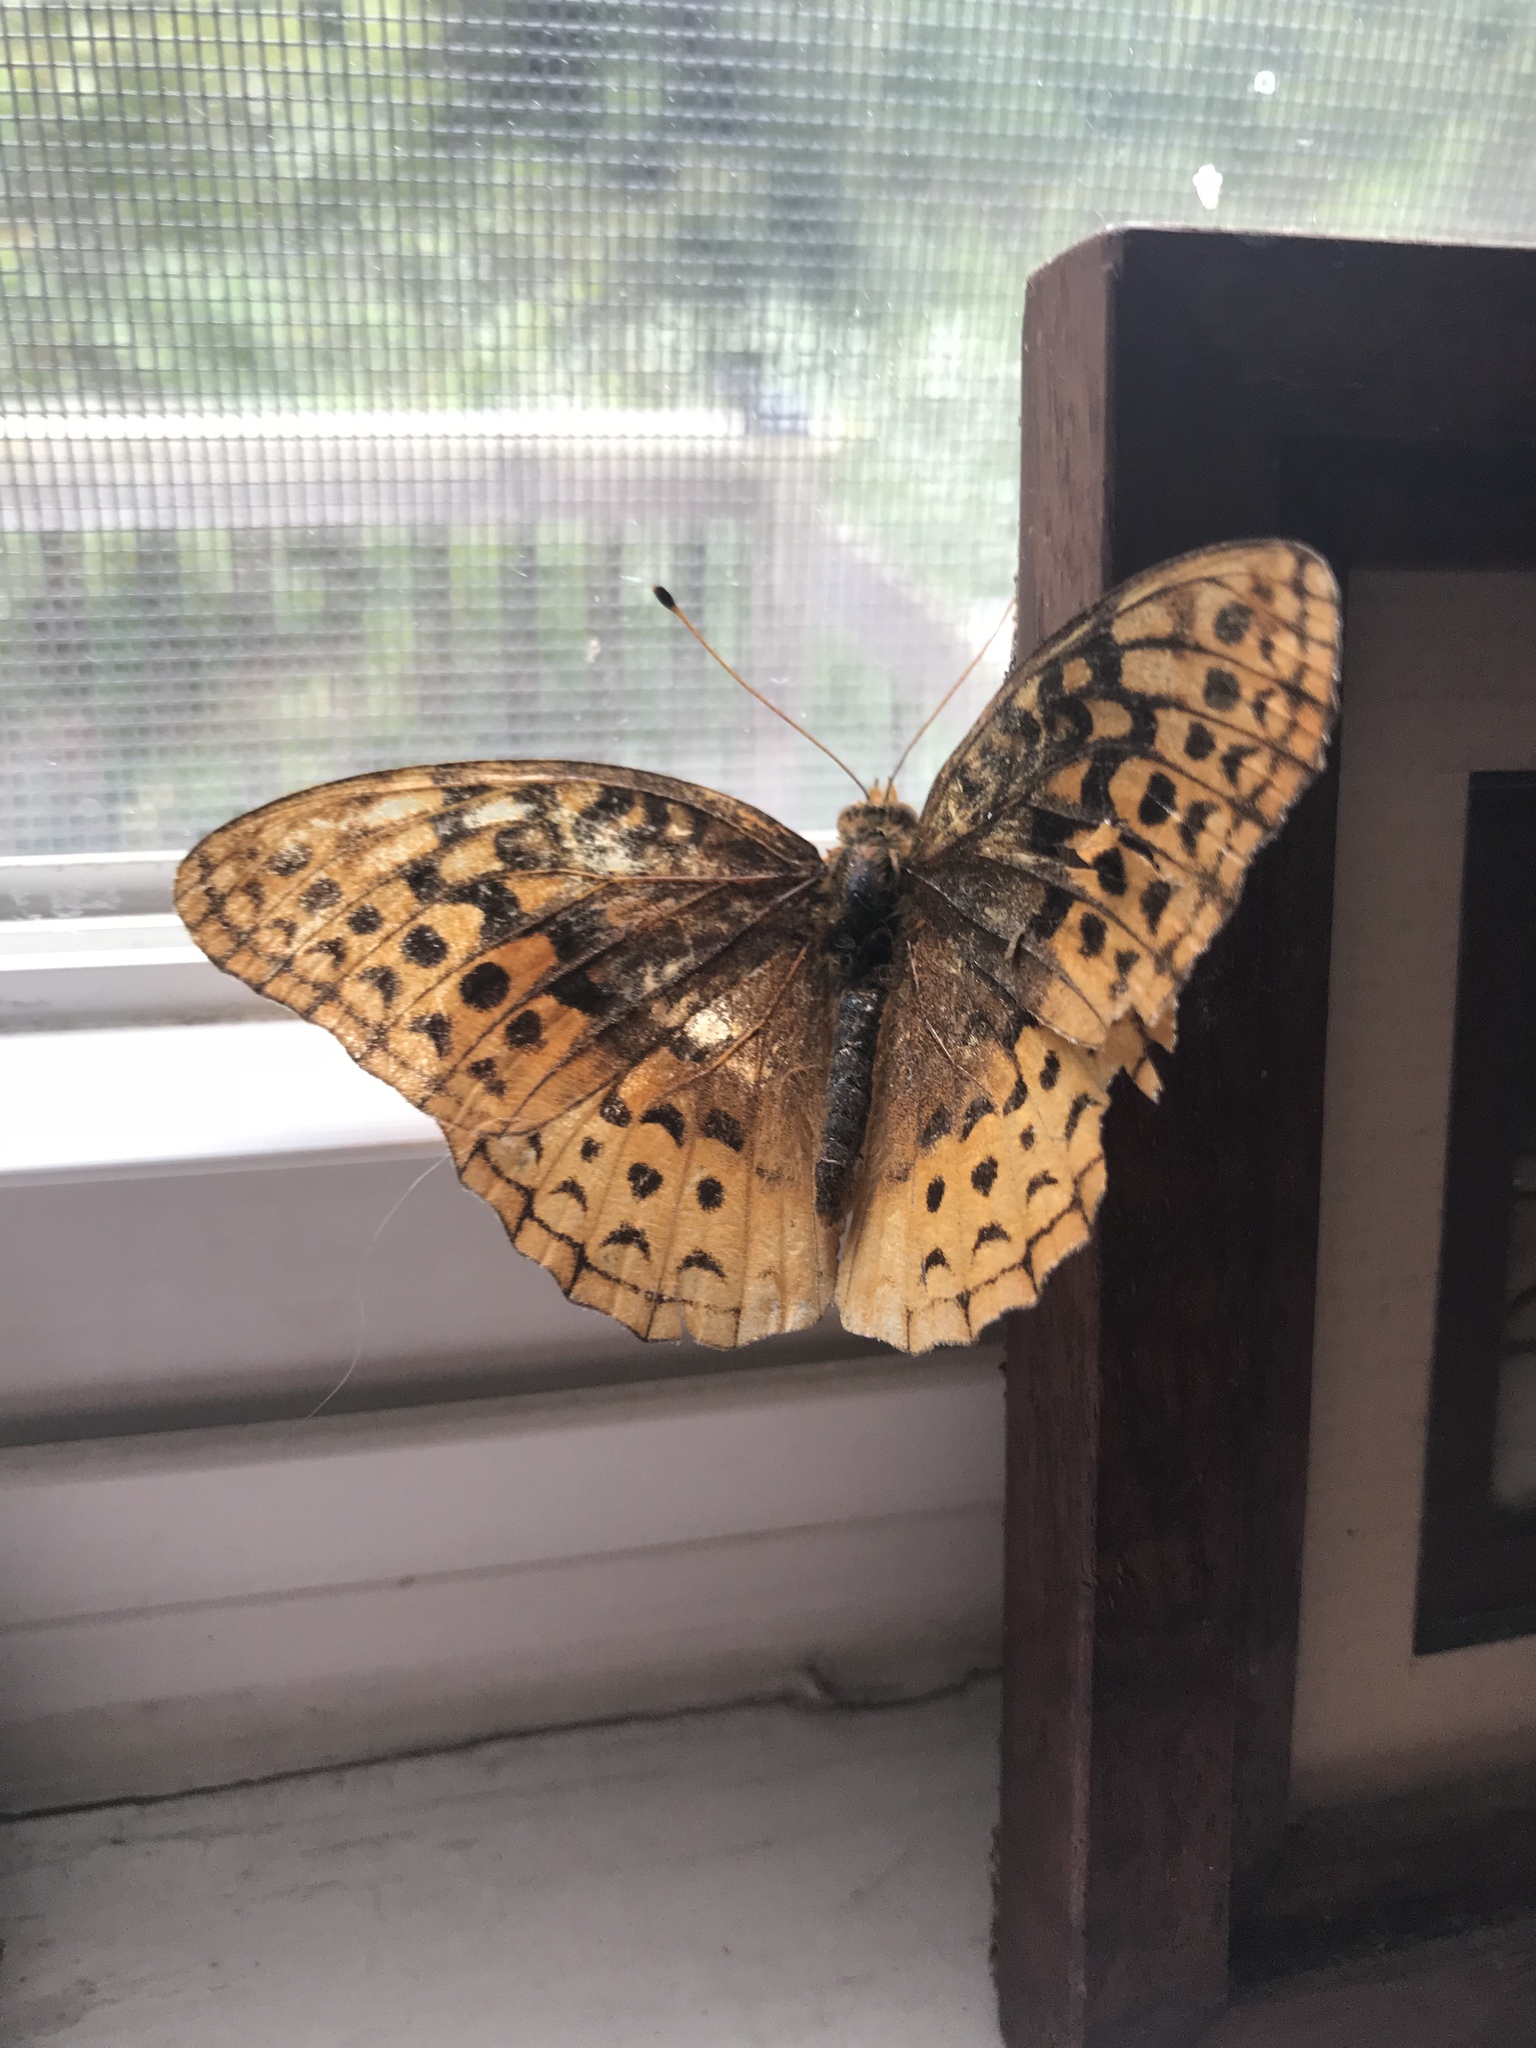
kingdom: Animalia
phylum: Arthropoda
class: Insecta
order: Lepidoptera
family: Nymphalidae
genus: Speyeria
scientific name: Speyeria cybele
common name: Great spangled fritillary
